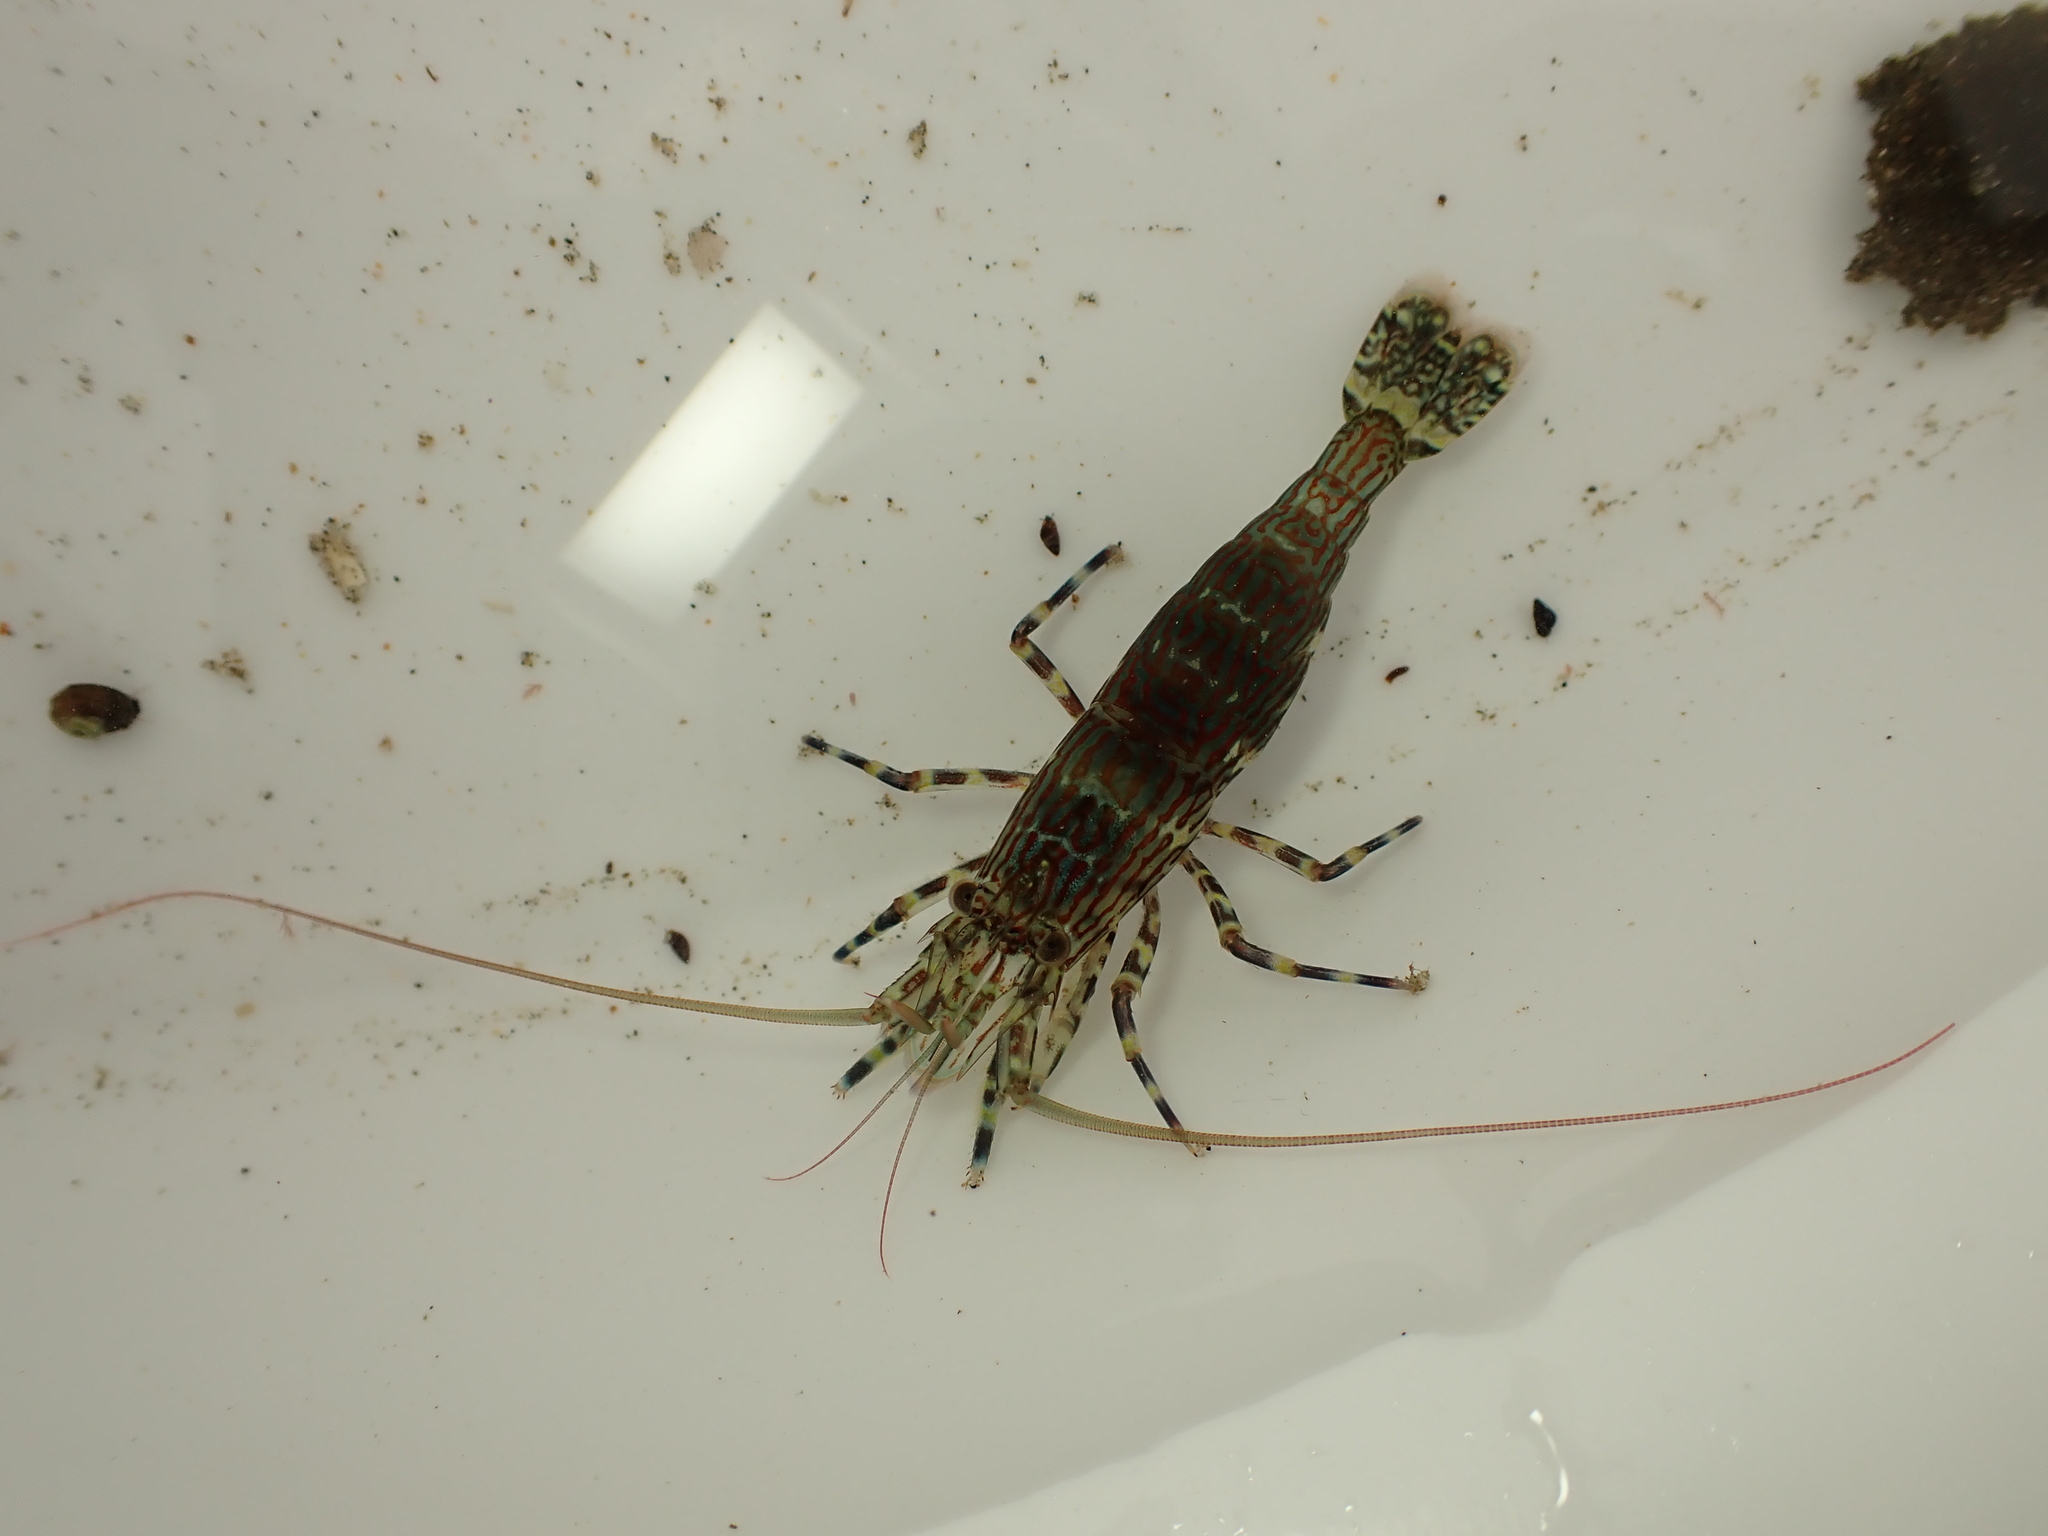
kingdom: Animalia
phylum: Arthropoda
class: Malacostraca
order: Decapoda
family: Hippolytidae
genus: Alope
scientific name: Alope spinifrons
